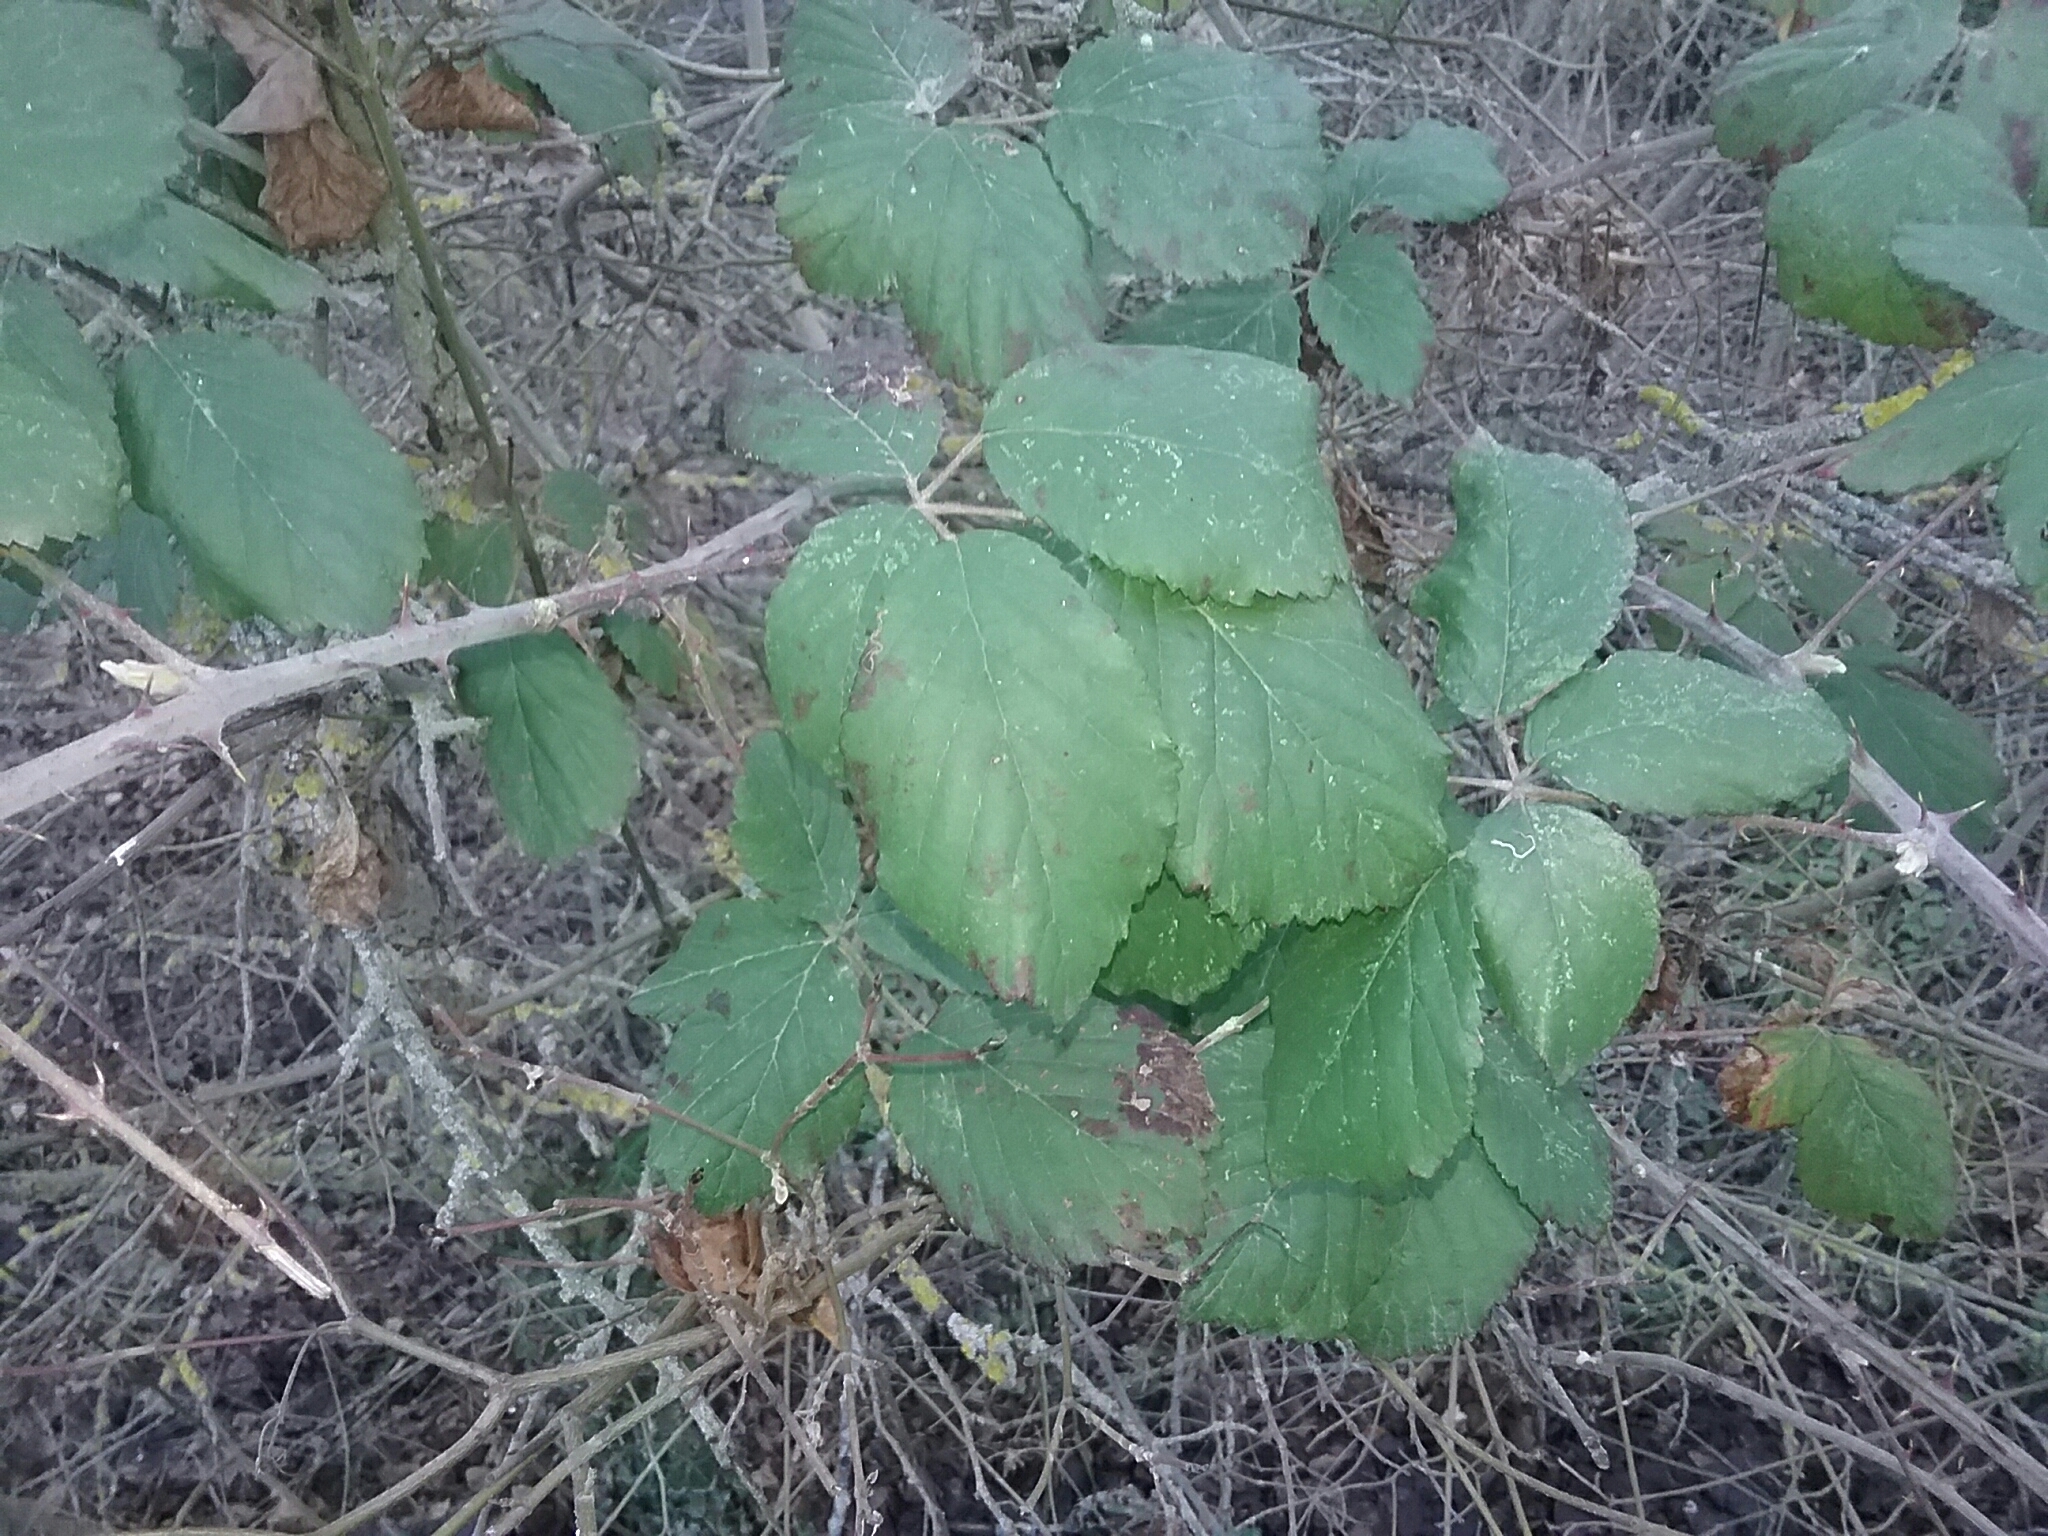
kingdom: Plantae
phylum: Tracheophyta
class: Magnoliopsida
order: Rosales
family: Rosaceae
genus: Rubus
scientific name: Rubus ulmifolius
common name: Elmleaf blackberry
